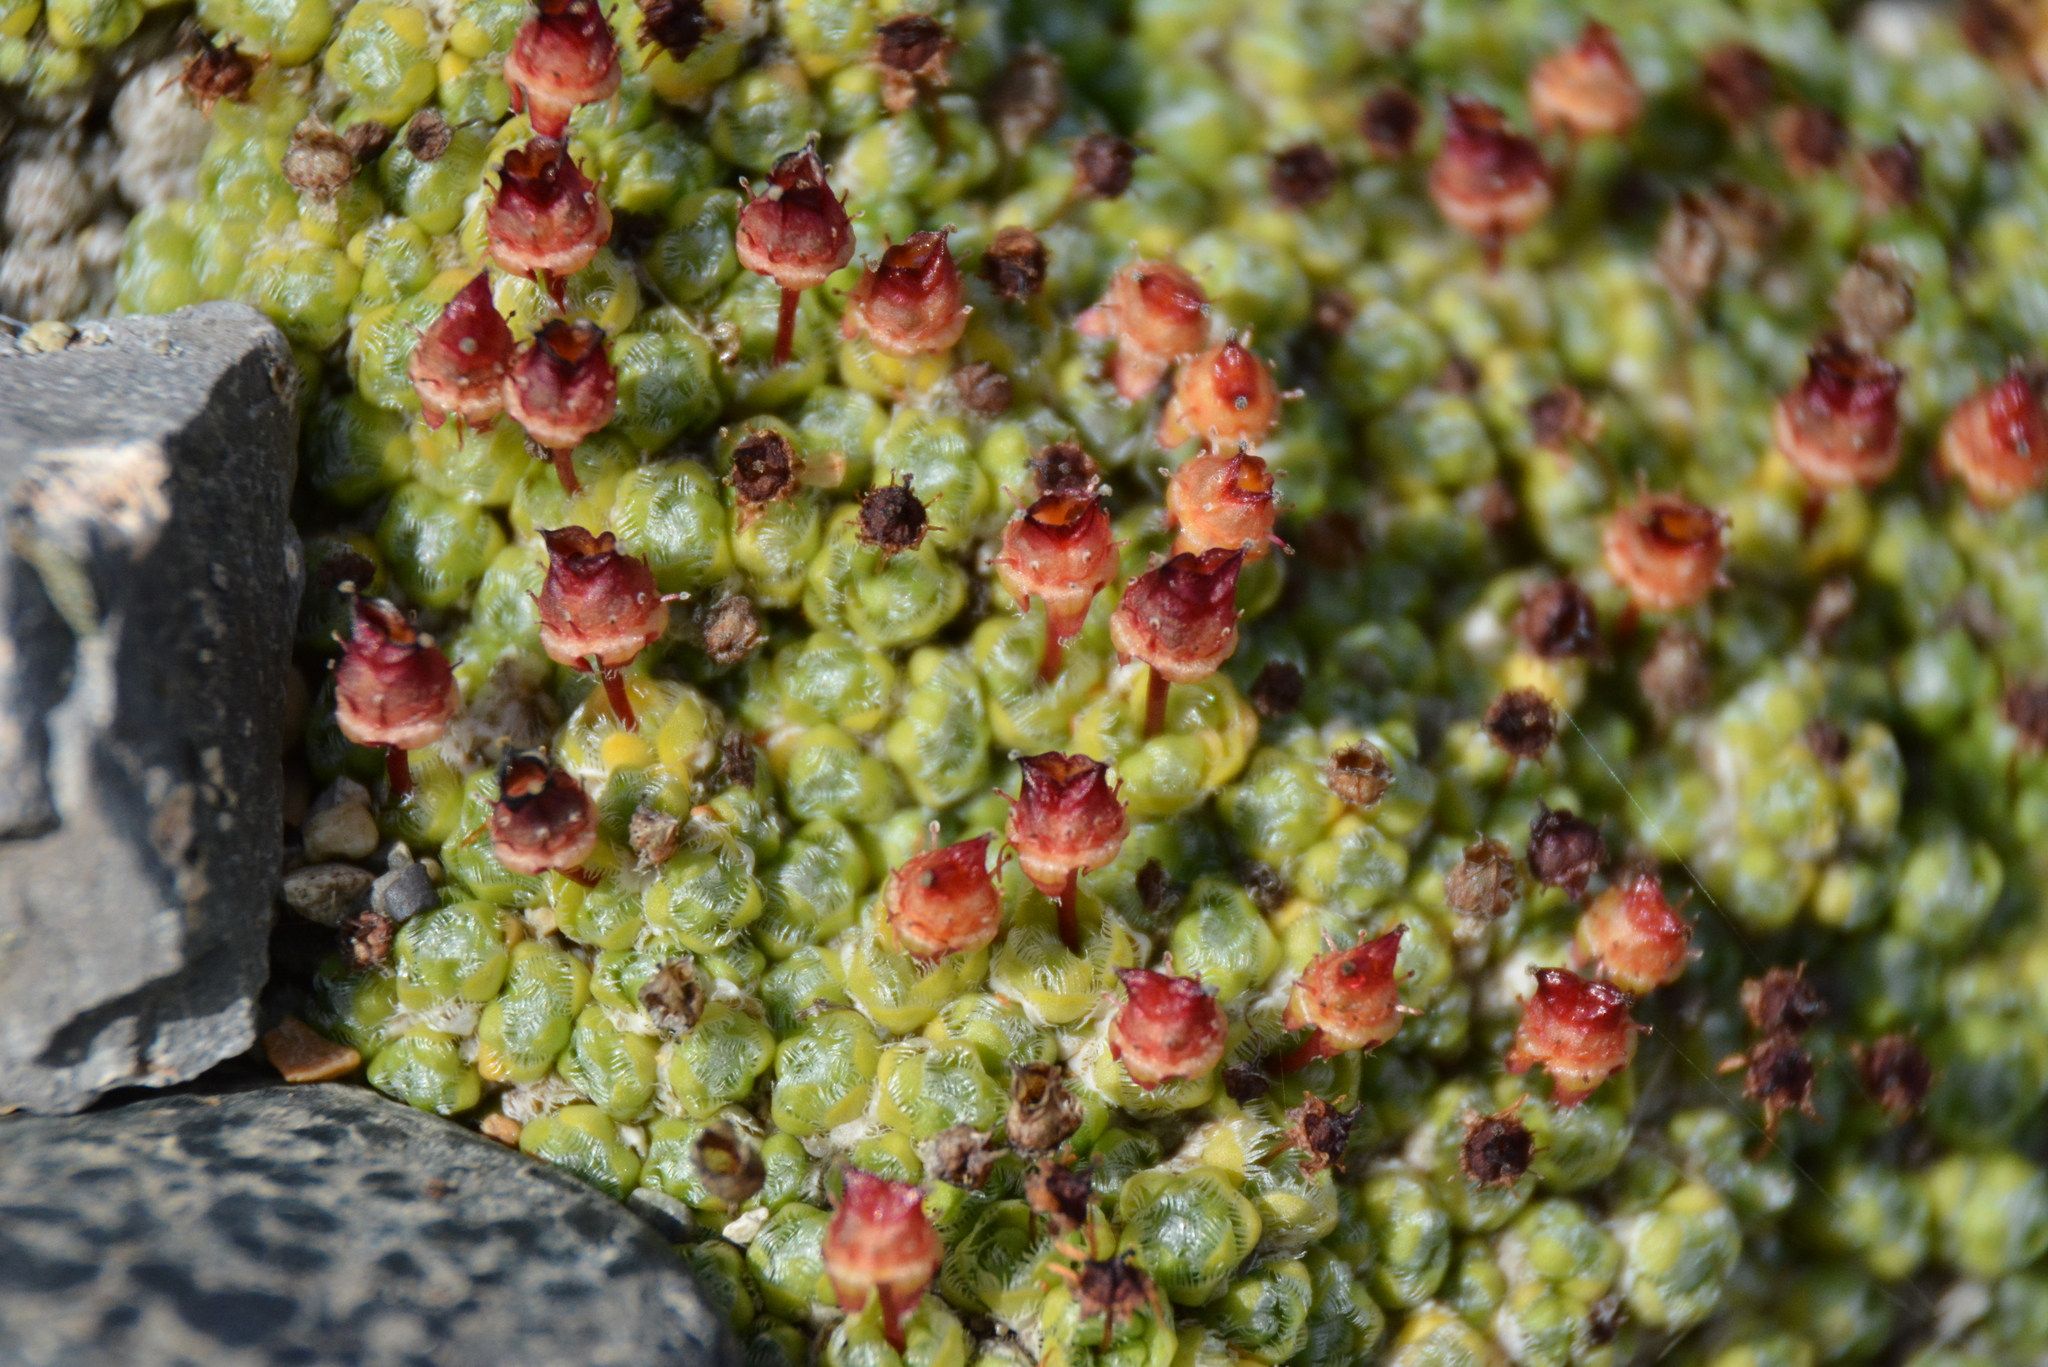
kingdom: Plantae
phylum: Tracheophyta
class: Magnoliopsida
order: Saxifragales
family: Saxifragaceae
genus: Saxifraga
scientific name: Saxifraga eschscholtzii
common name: Eschscholtz's saxifrage
